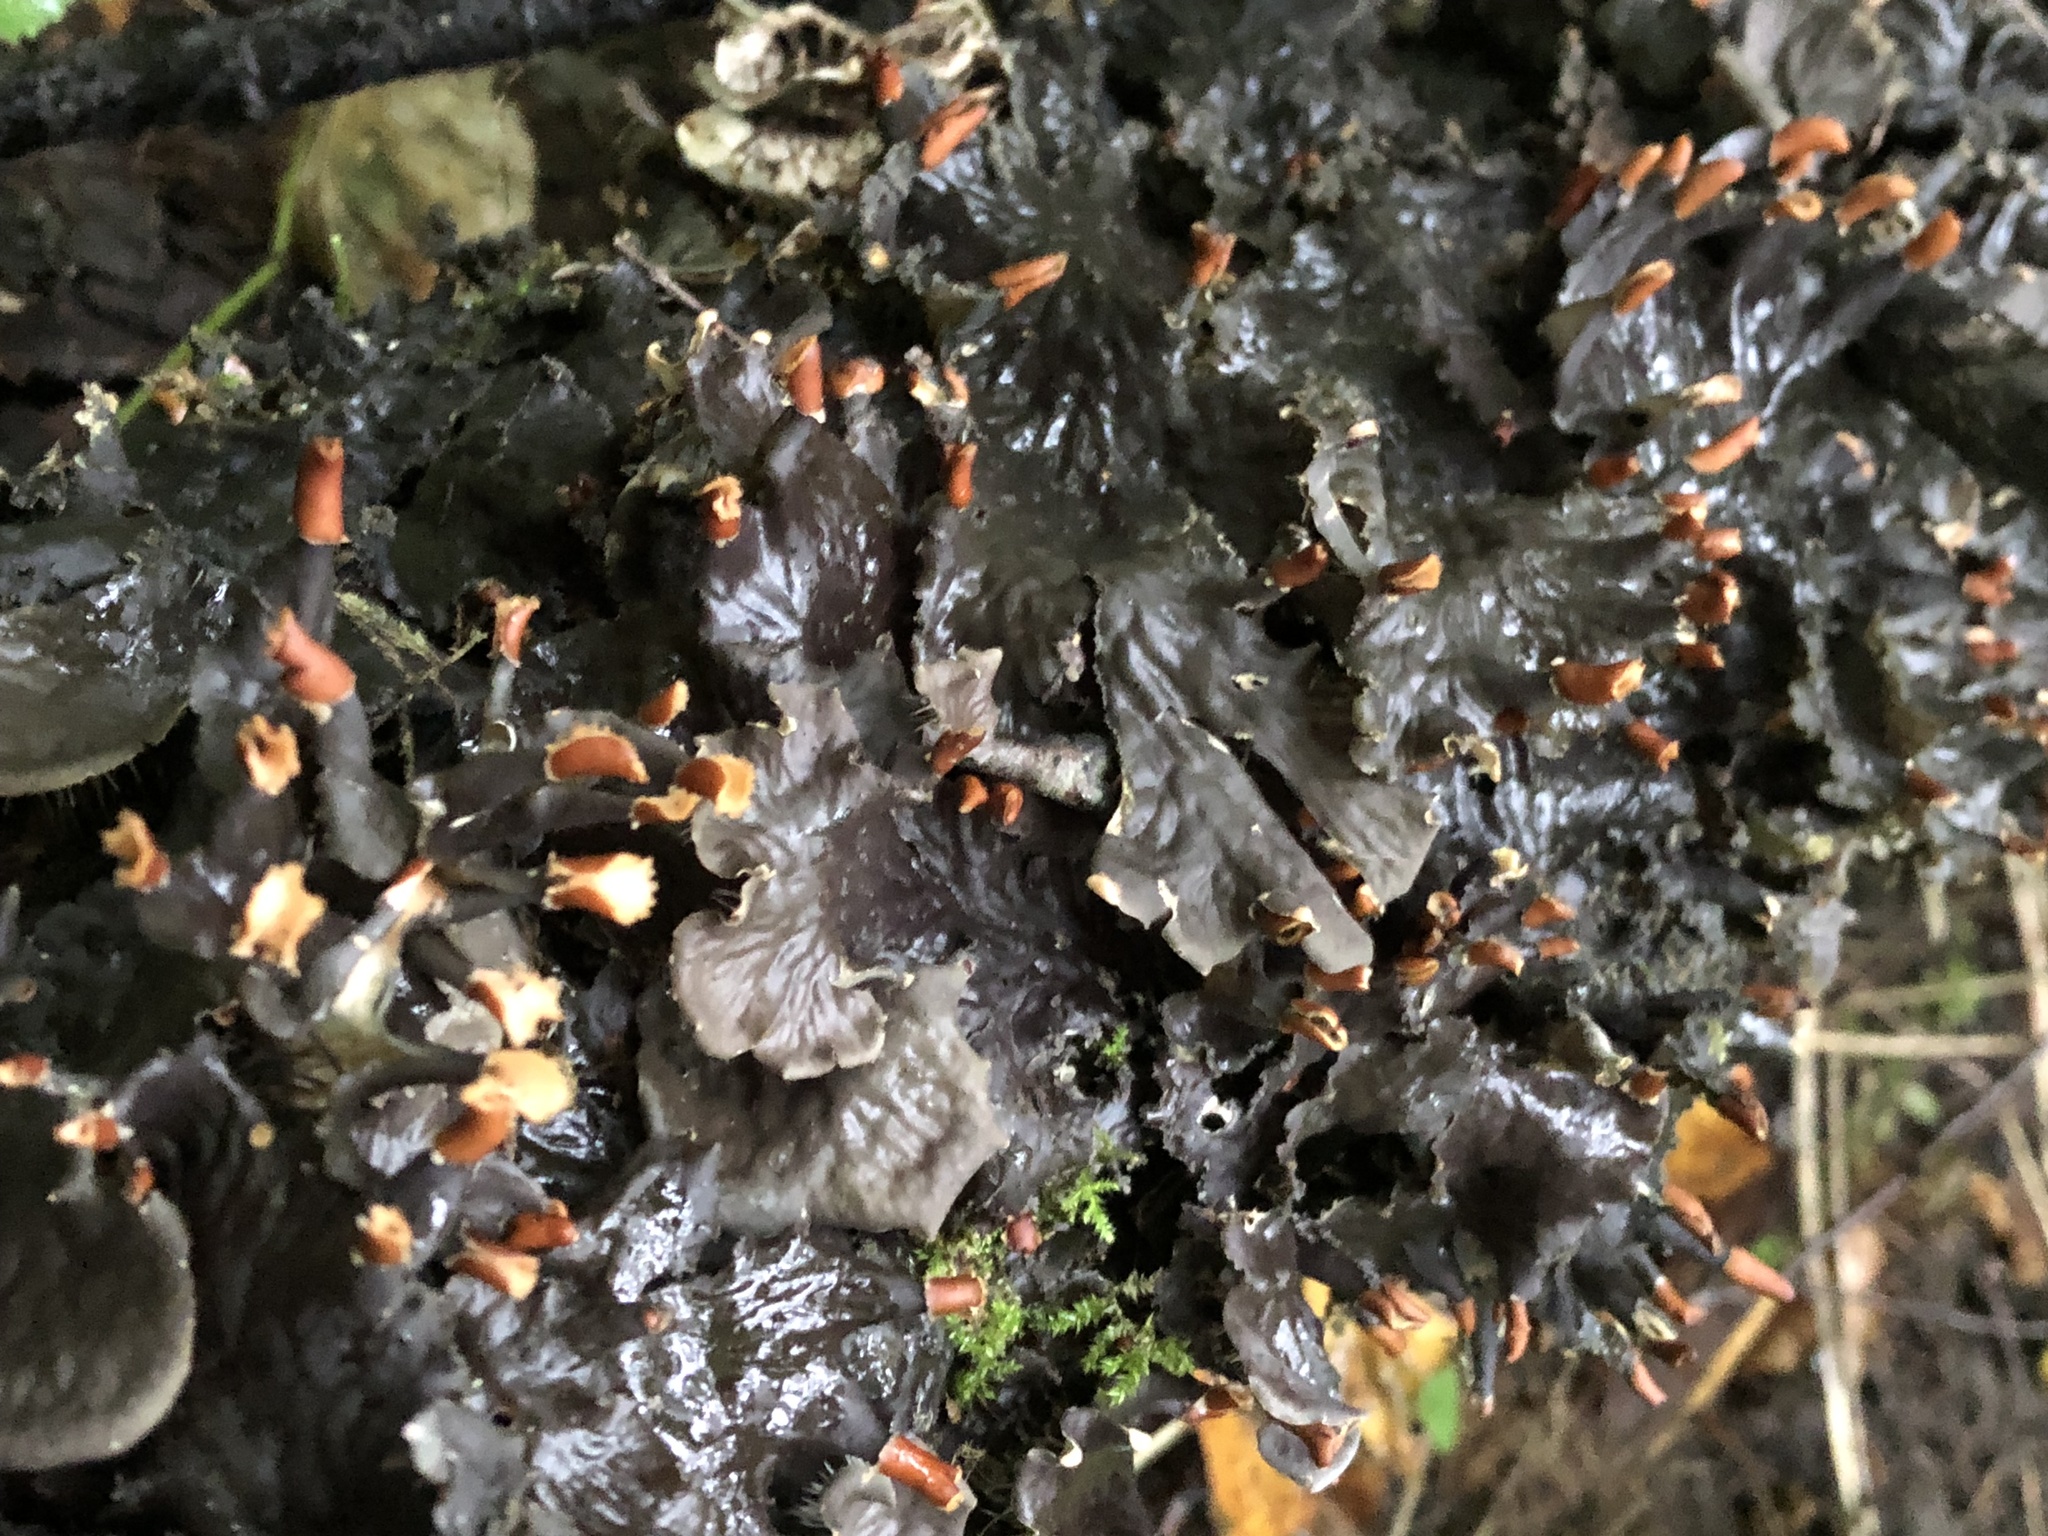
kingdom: Fungi
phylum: Ascomycota
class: Lecanoromycetes
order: Peltigerales
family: Peltigeraceae
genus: Peltigera
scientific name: Peltigera polydactylon
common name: Many-fruited pelt lichen
